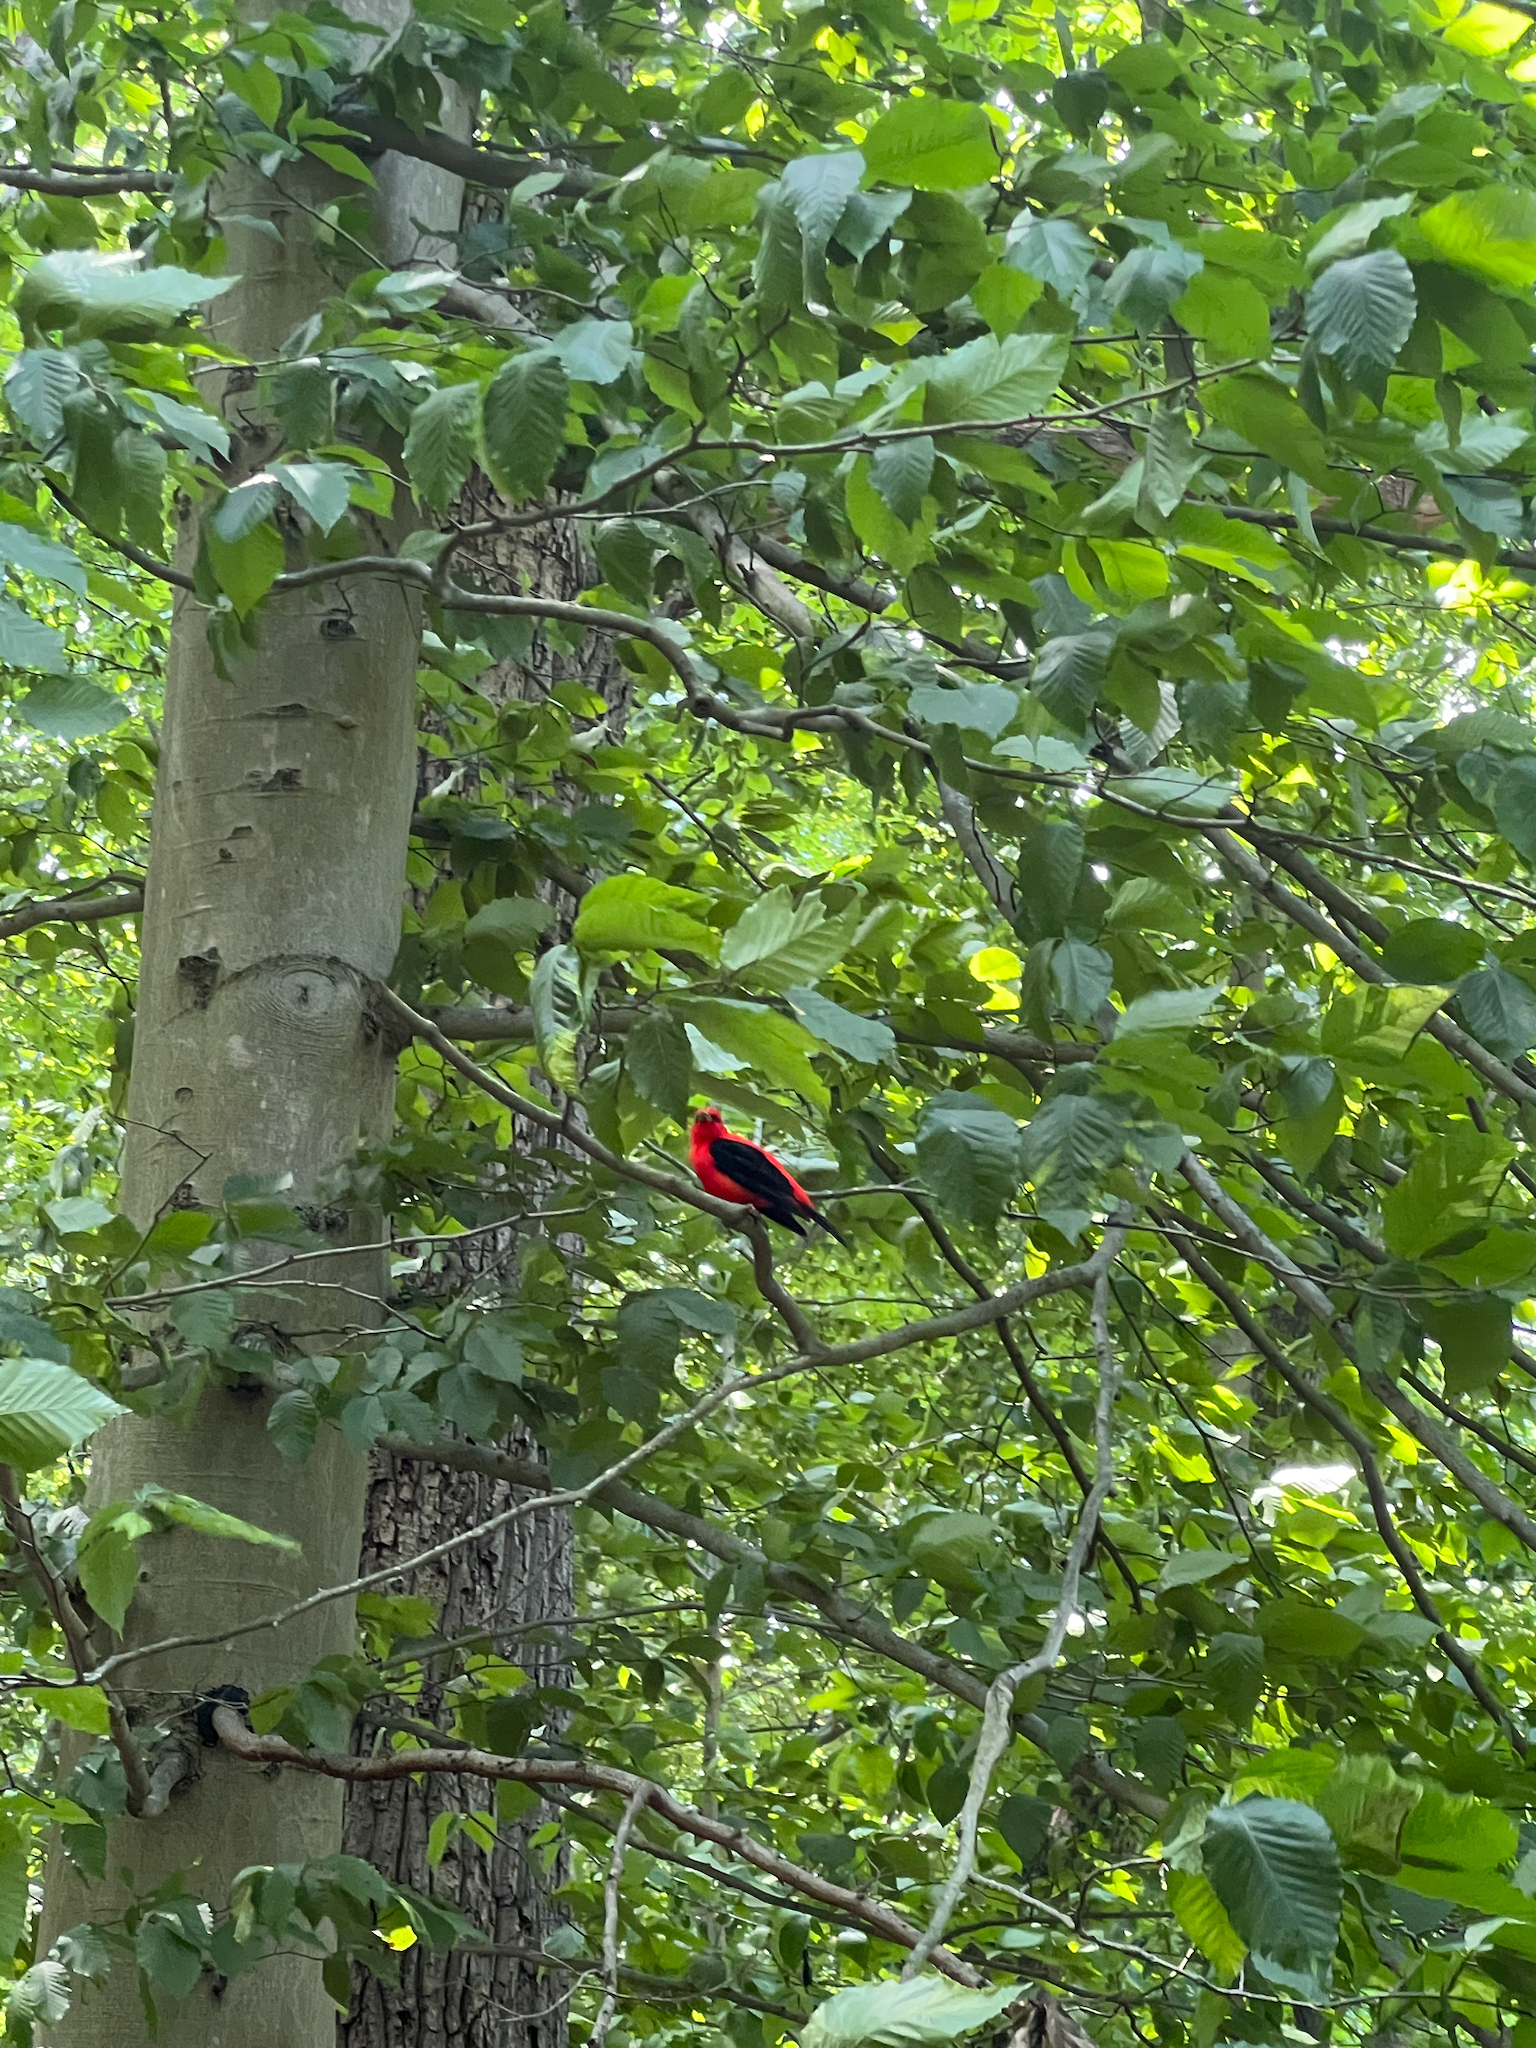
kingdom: Animalia
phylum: Chordata
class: Aves
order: Passeriformes
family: Cardinalidae
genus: Piranga
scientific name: Piranga olivacea
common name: Scarlet tanager
